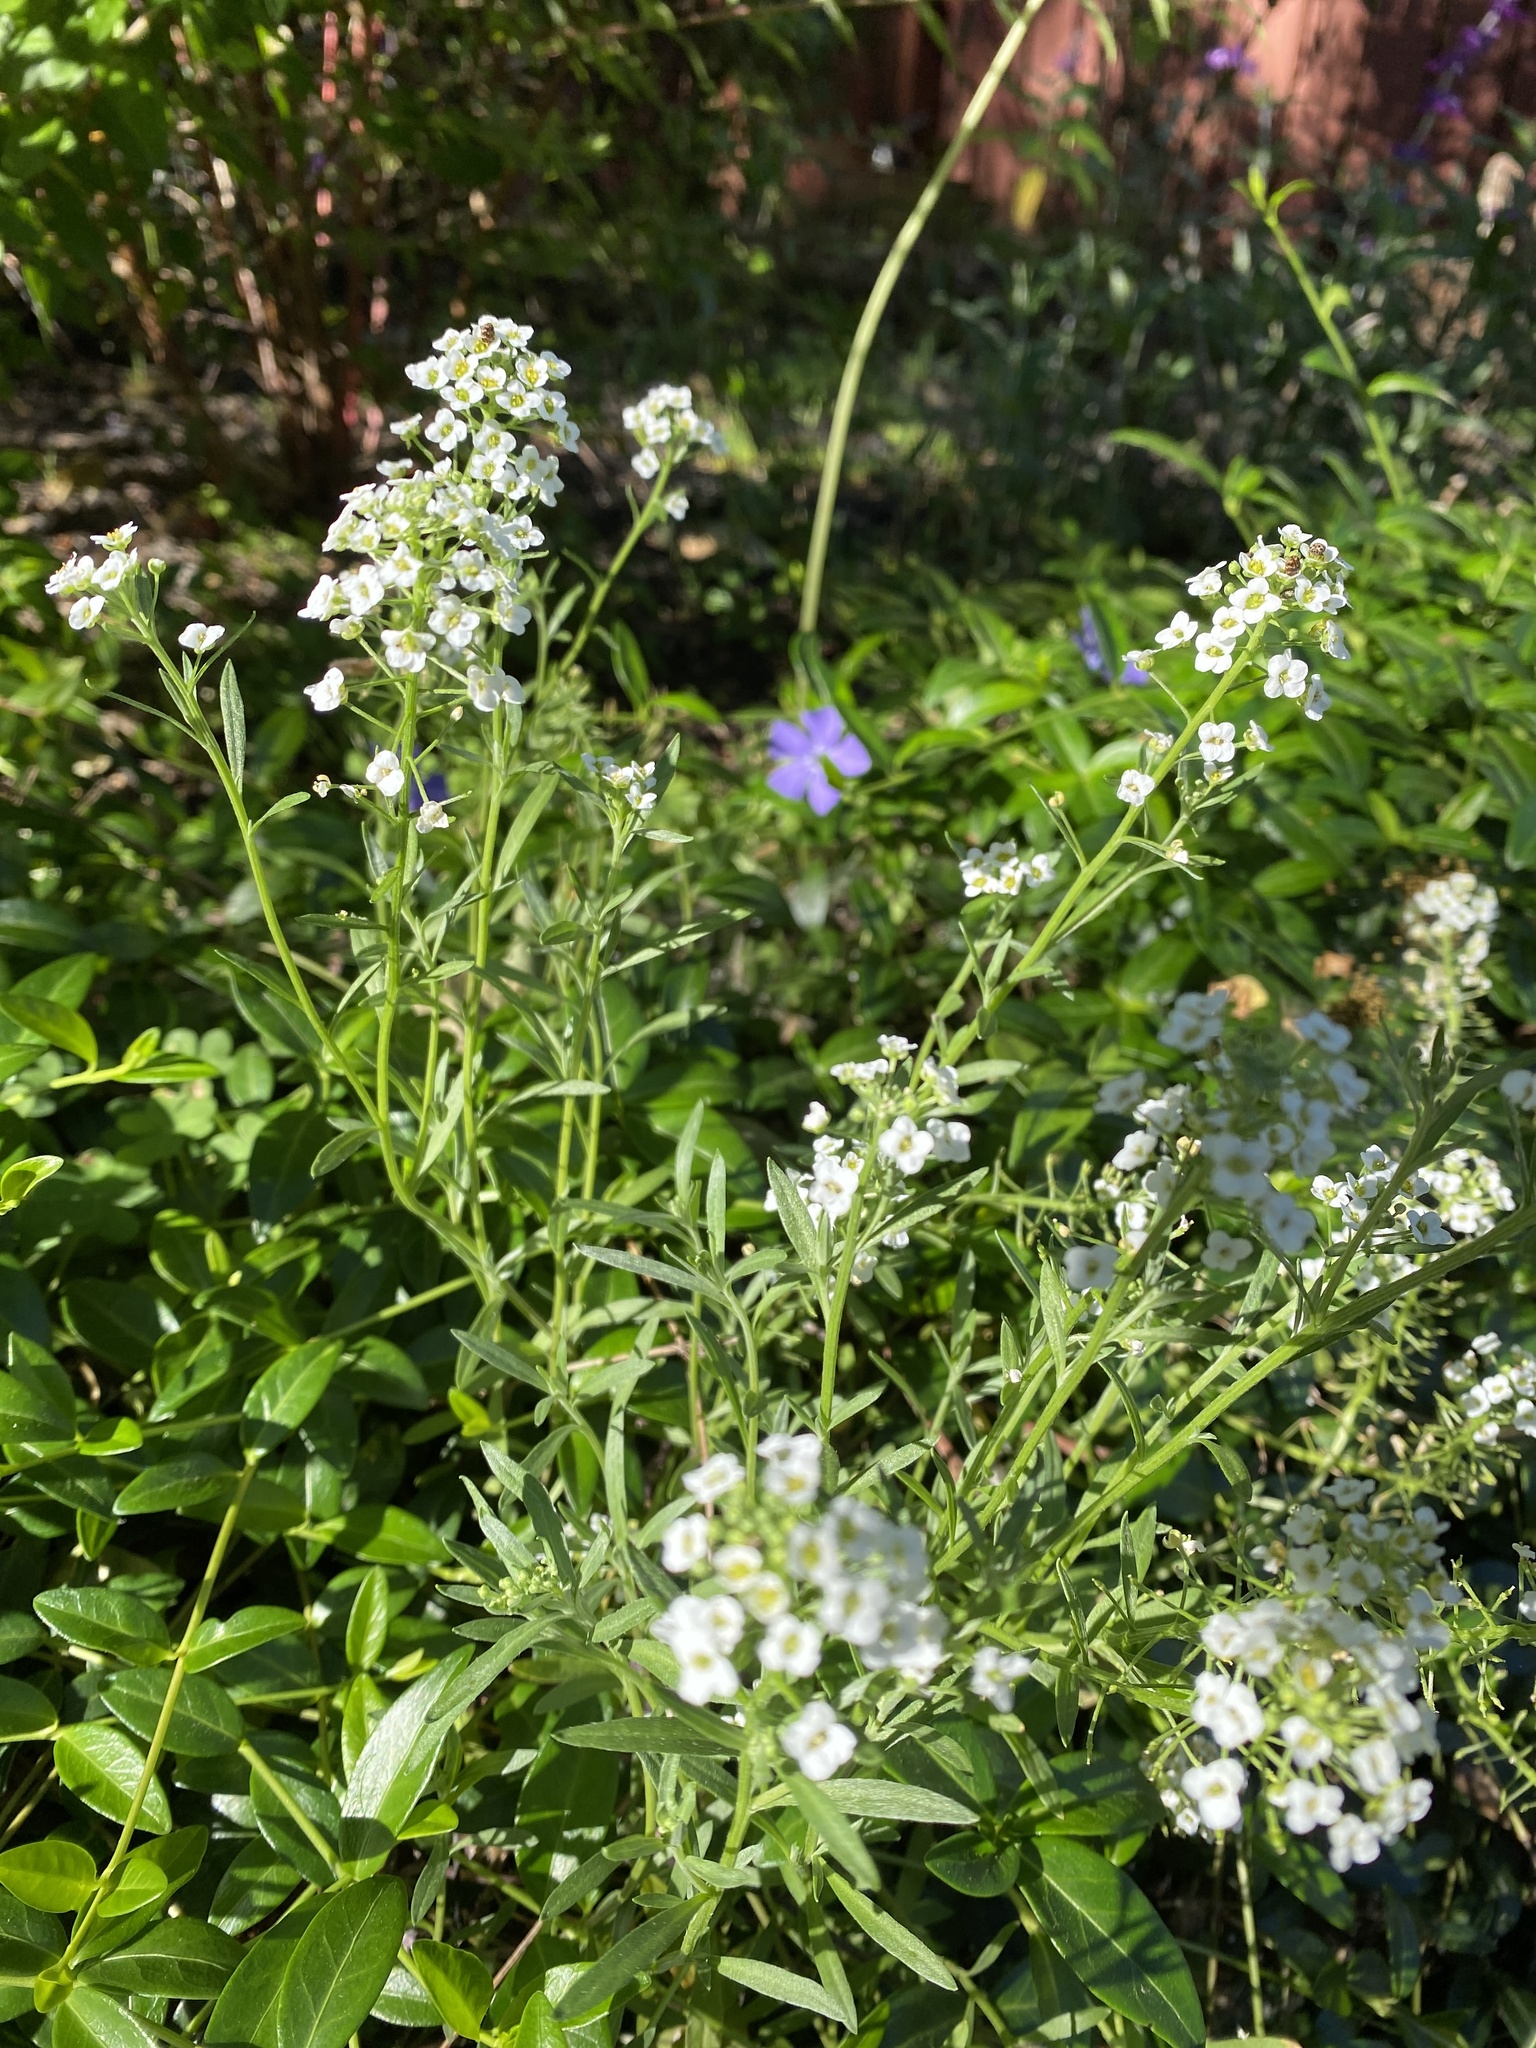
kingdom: Plantae
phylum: Tracheophyta
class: Magnoliopsida
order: Brassicales
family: Brassicaceae
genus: Lobularia
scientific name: Lobularia maritima
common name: Sweet alison
